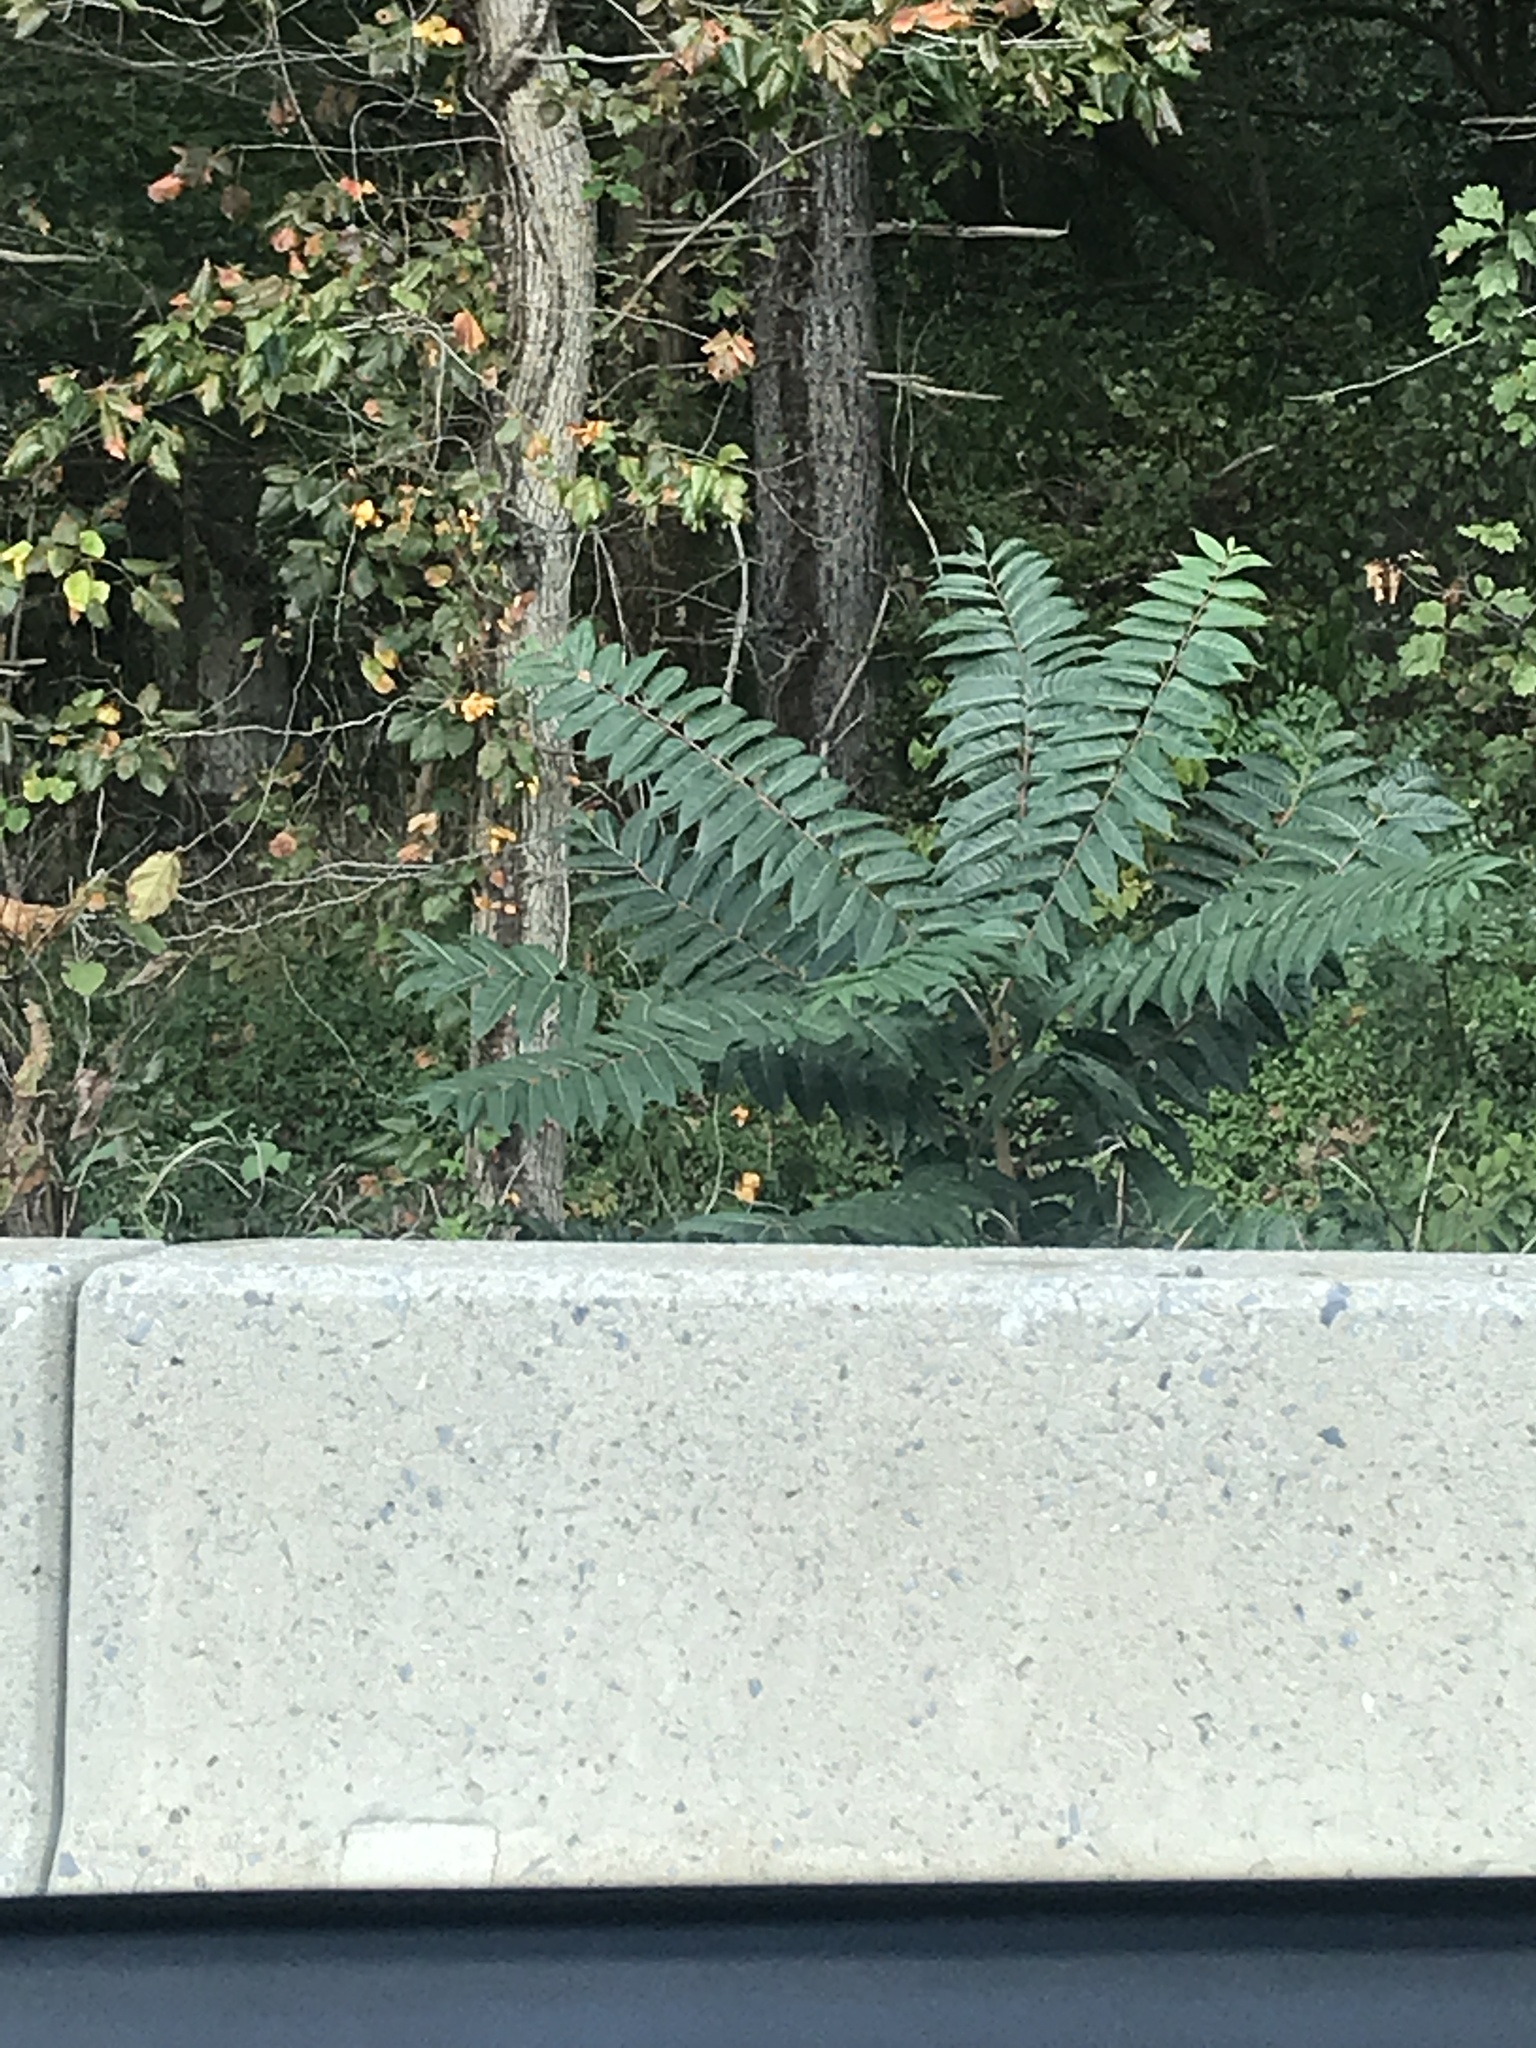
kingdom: Plantae
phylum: Tracheophyta
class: Magnoliopsida
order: Sapindales
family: Simaroubaceae
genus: Ailanthus
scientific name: Ailanthus altissima
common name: Tree-of-heaven
